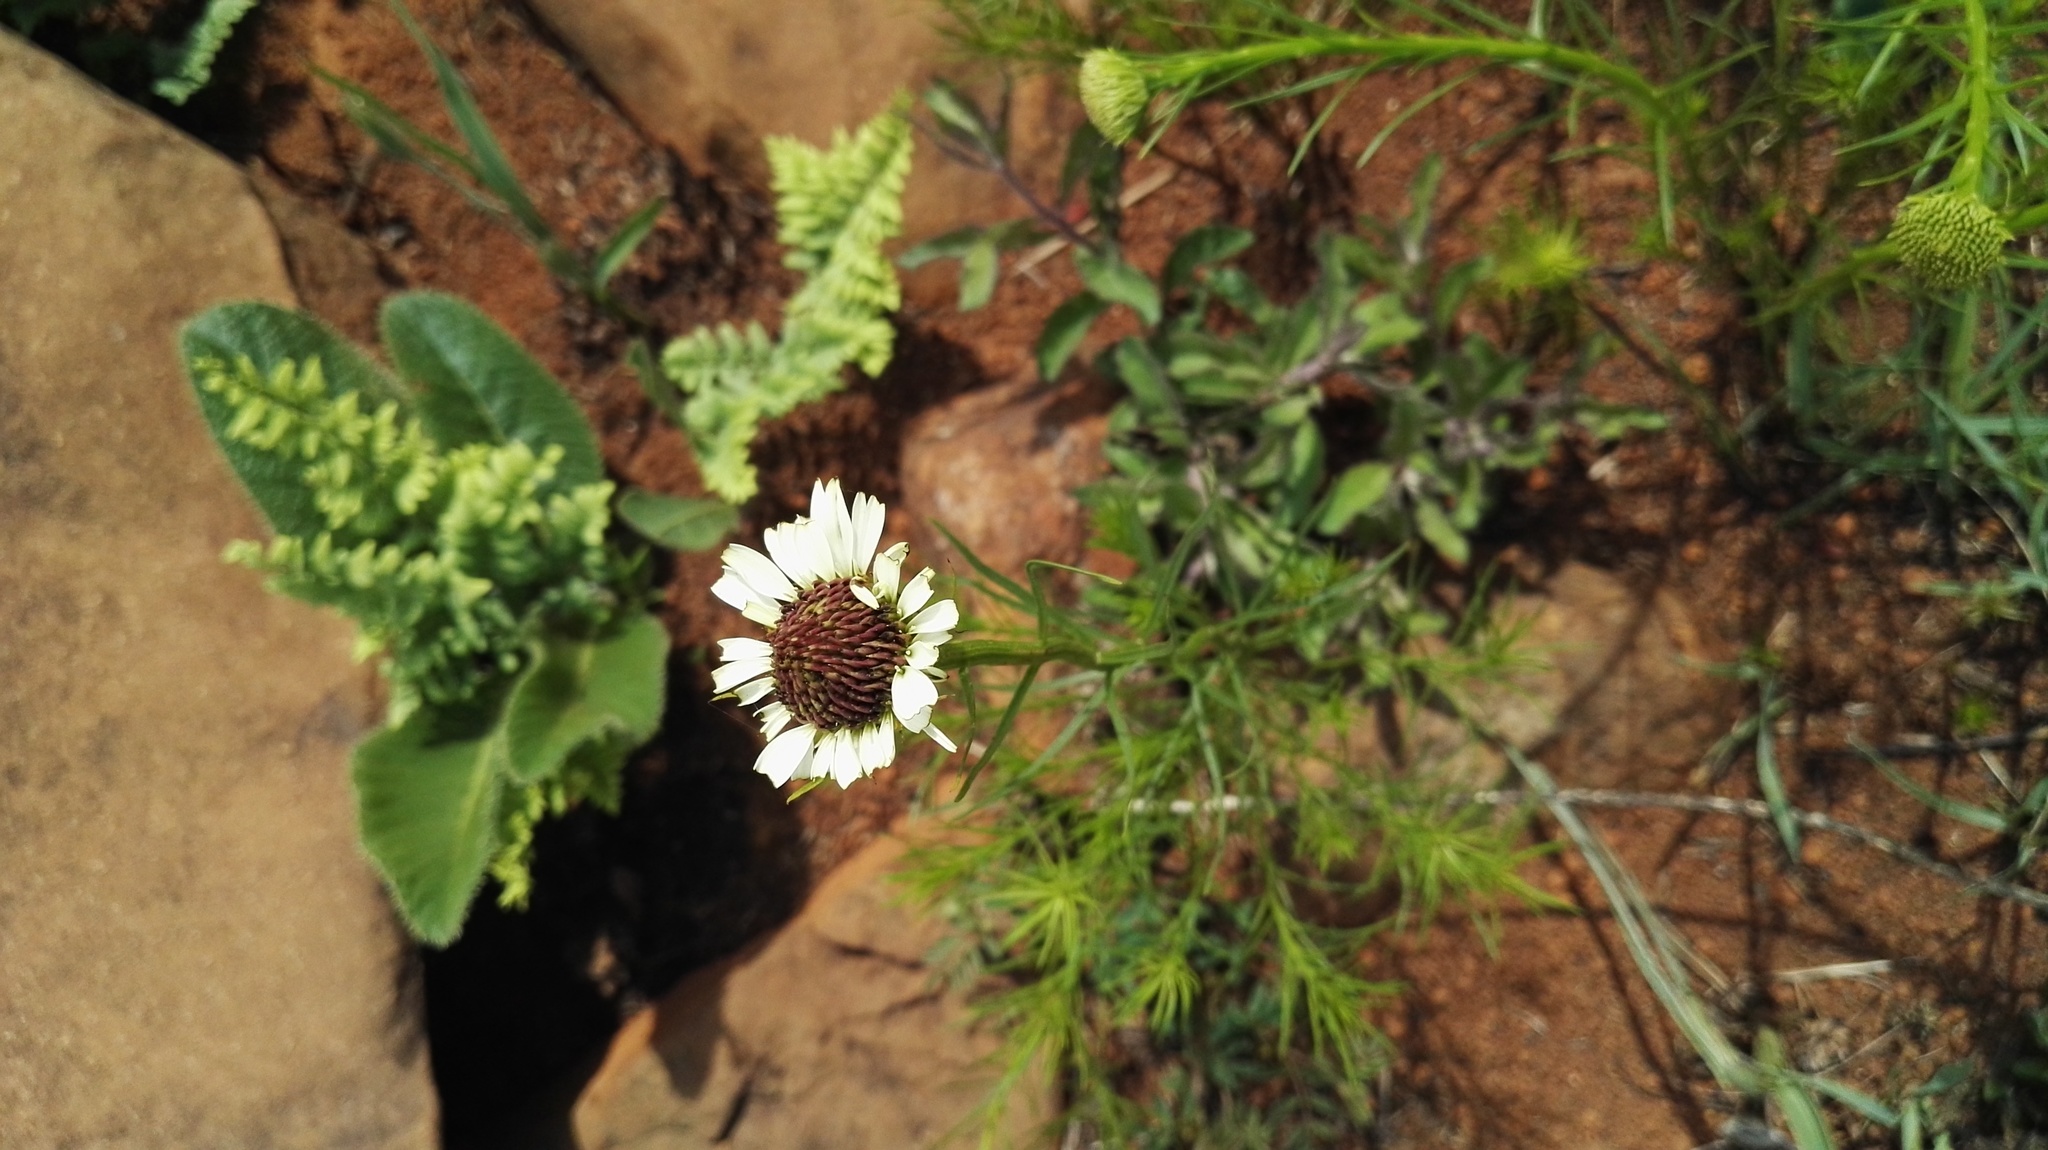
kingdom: Plantae
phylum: Tracheophyta
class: Magnoliopsida
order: Asterales
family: Asteraceae
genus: Callilepis
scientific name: Callilepis laureola
